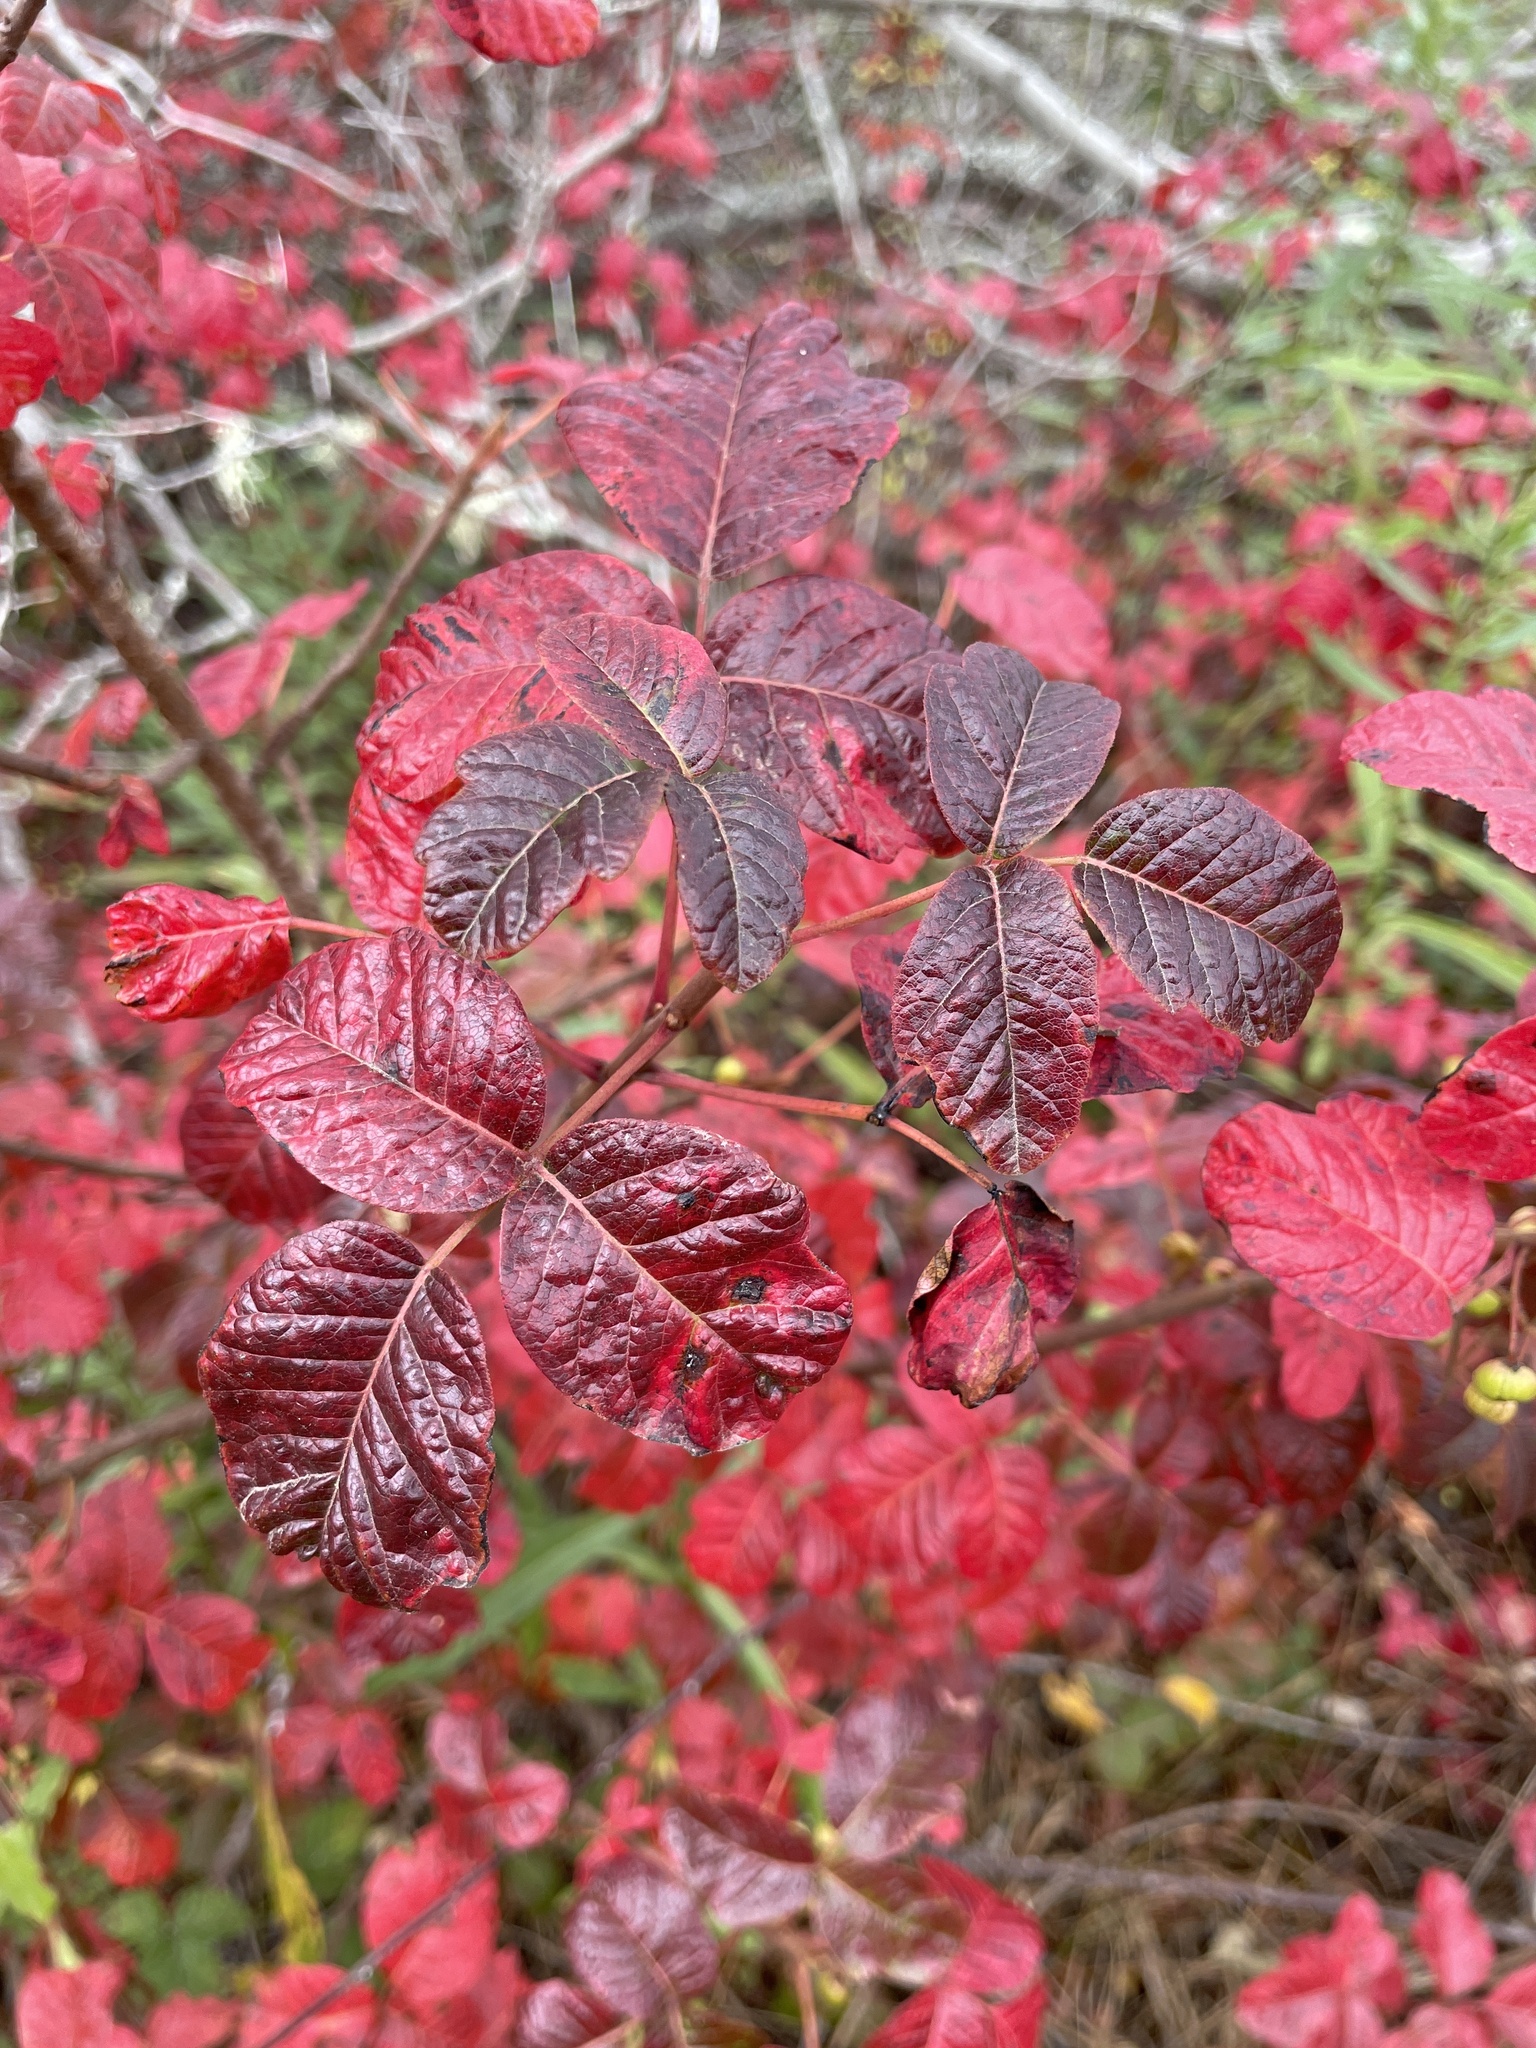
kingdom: Plantae
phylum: Tracheophyta
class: Magnoliopsida
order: Sapindales
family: Anacardiaceae
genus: Toxicodendron
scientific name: Toxicodendron diversilobum
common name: Pacific poison-oak
